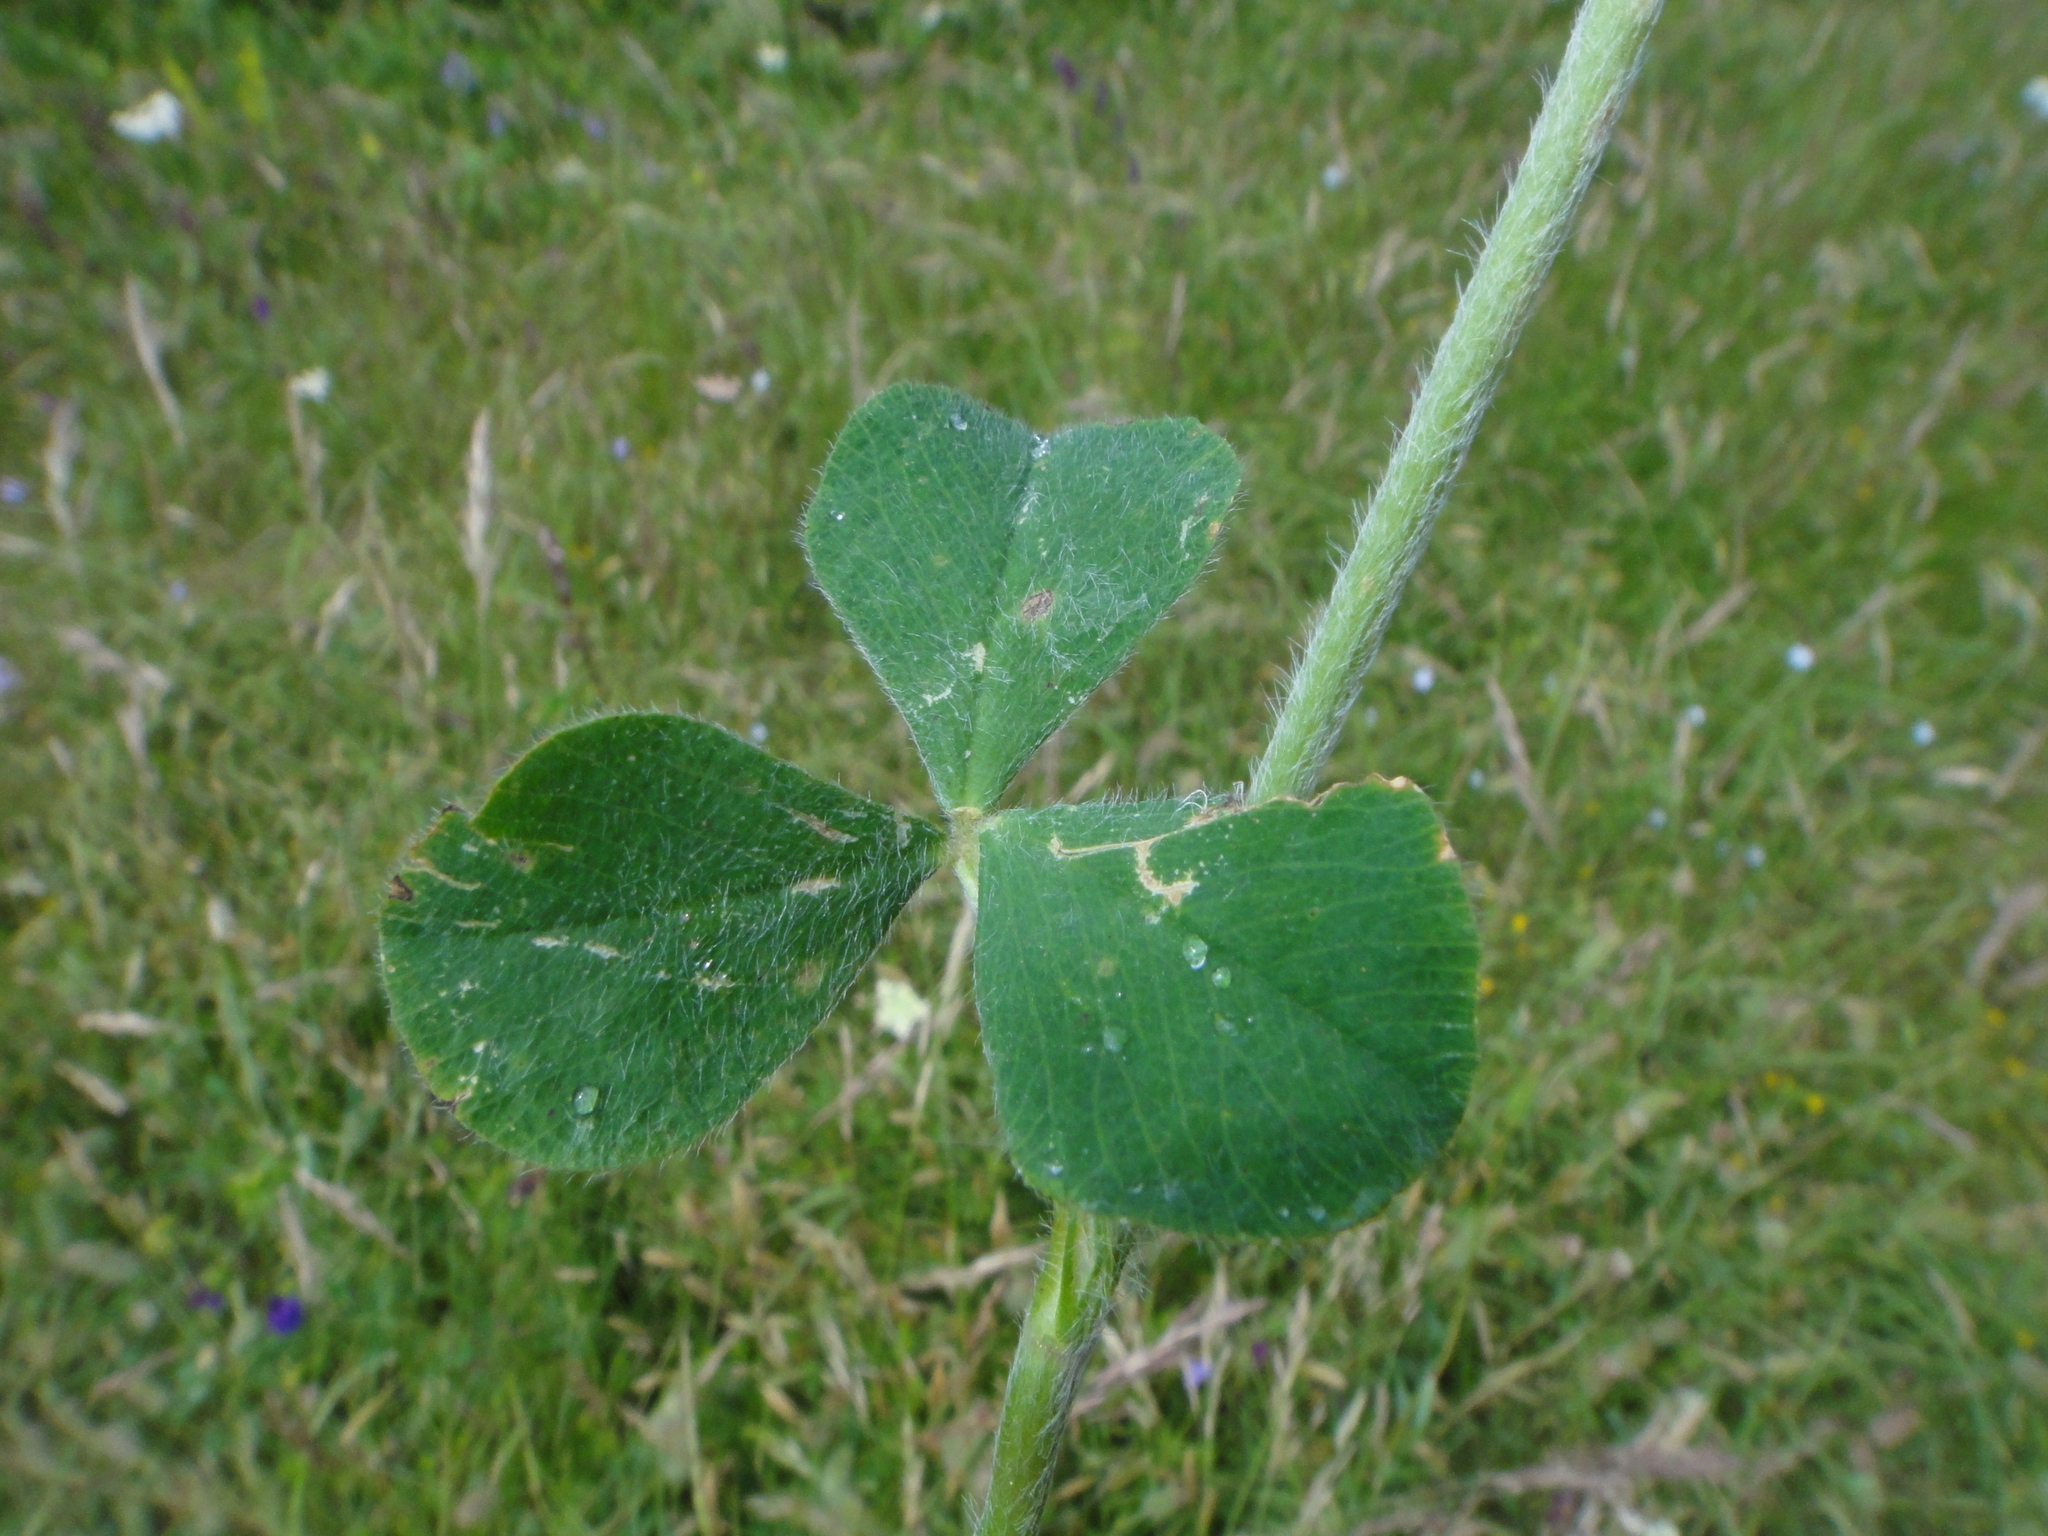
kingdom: Plantae
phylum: Tracheophyta
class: Magnoliopsida
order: Fabales
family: Fabaceae
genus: Trifolium
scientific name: Trifolium stellatum
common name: Starry clover
